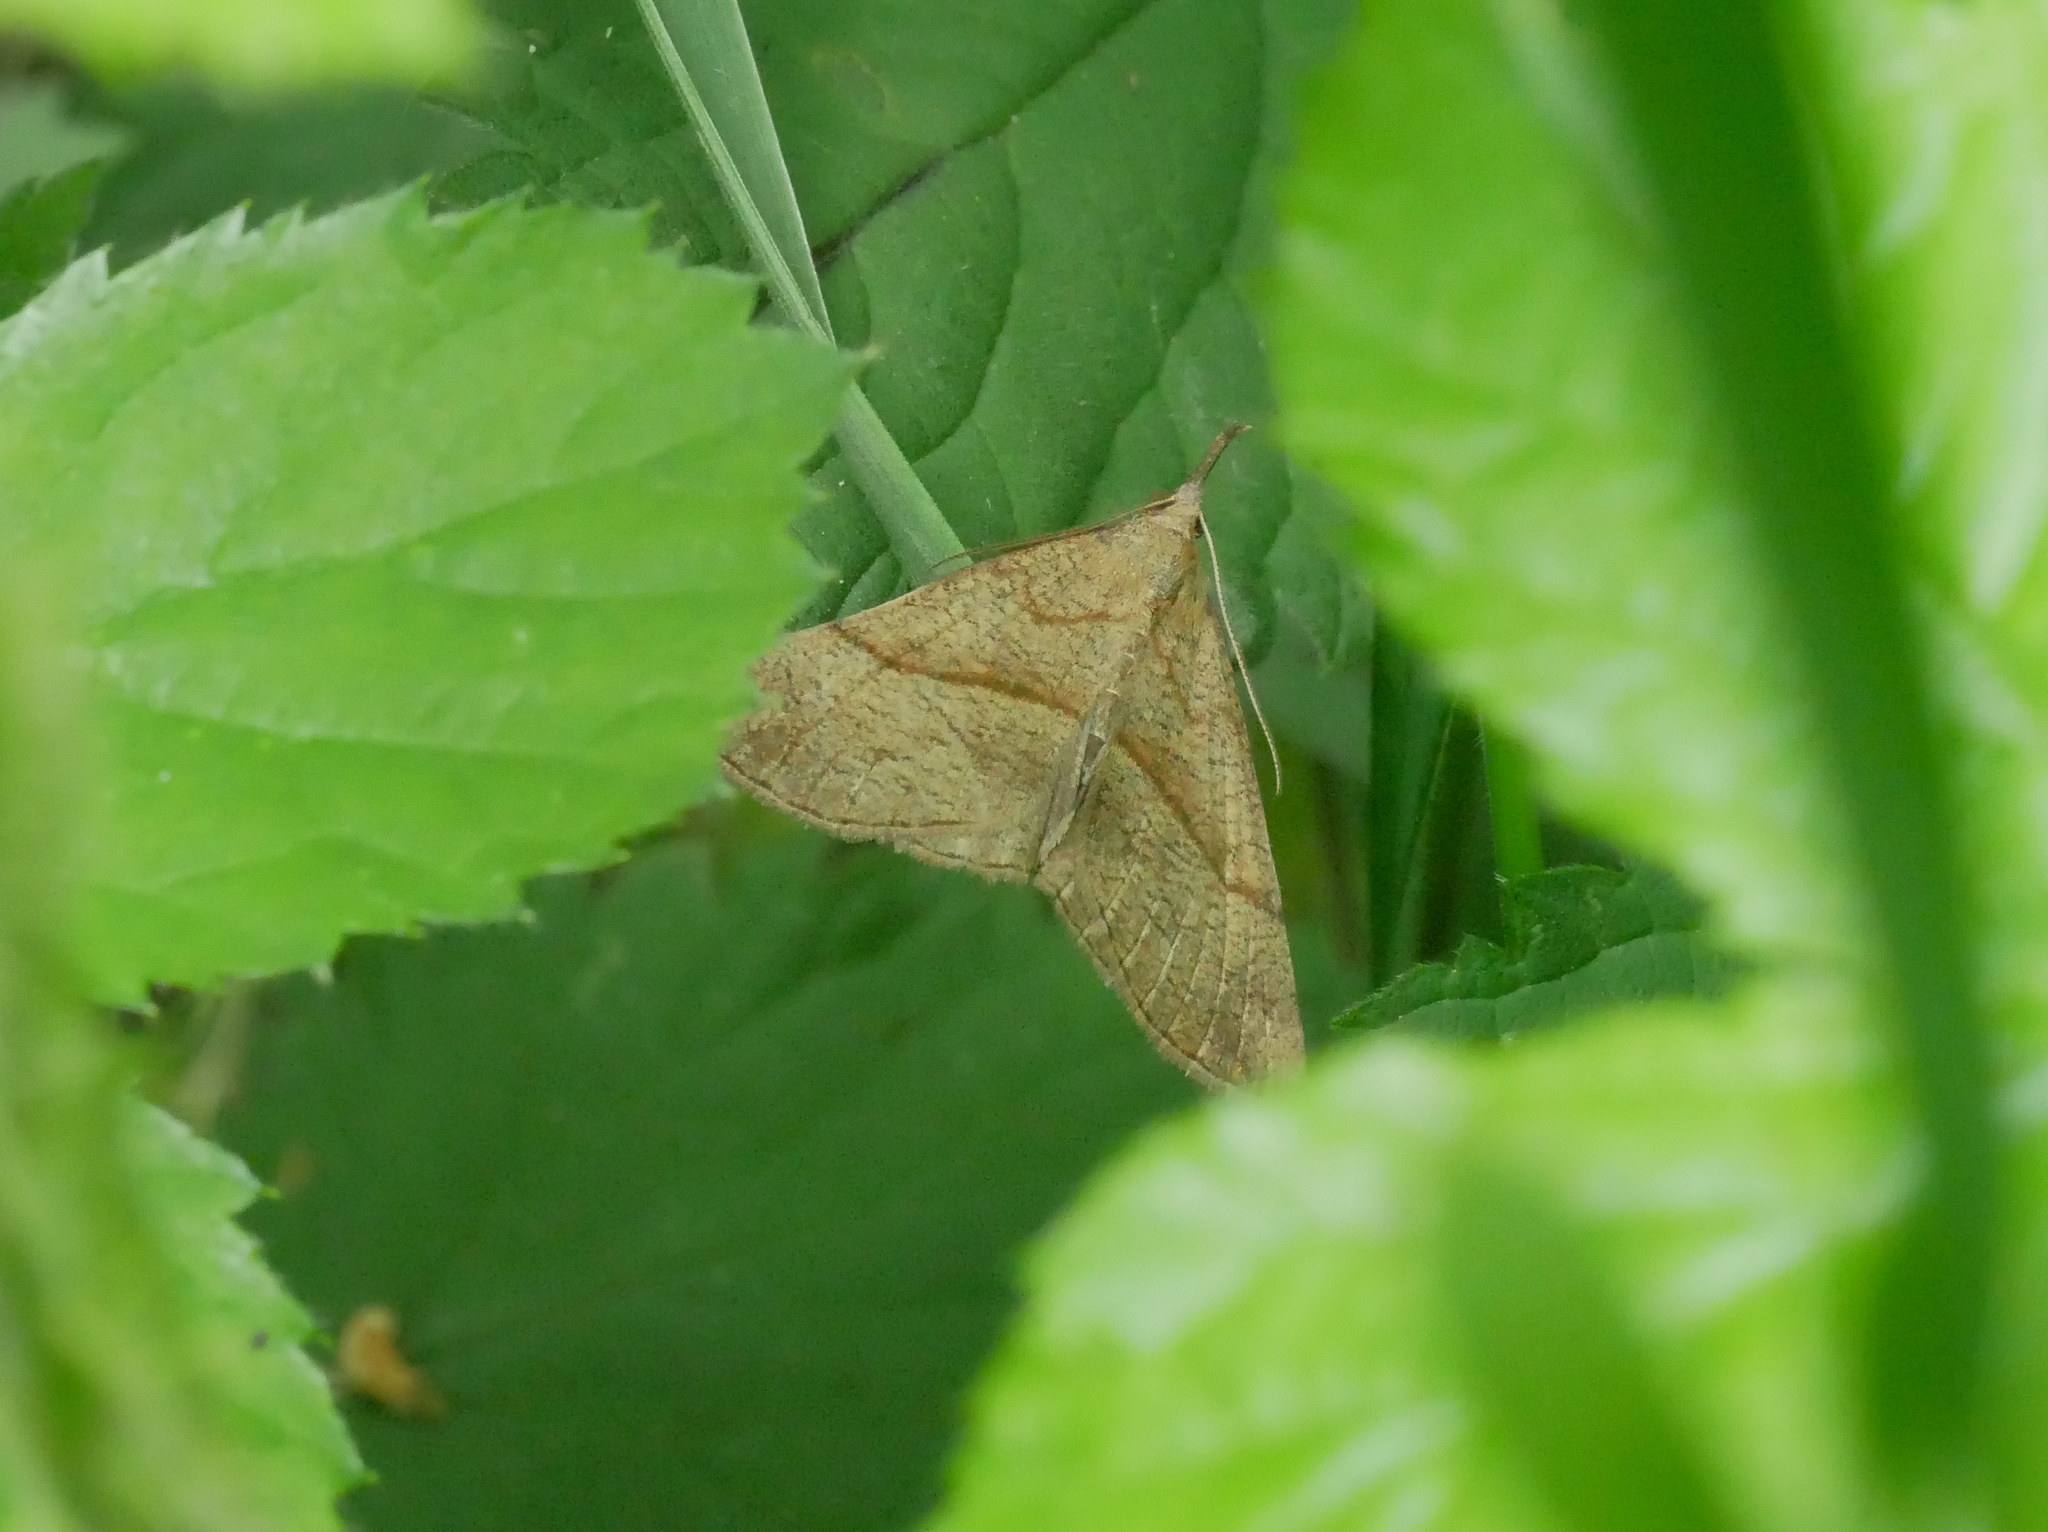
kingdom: Animalia
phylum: Arthropoda
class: Insecta
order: Lepidoptera
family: Erebidae
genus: Hypena
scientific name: Hypena proboscidalis
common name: Snout
